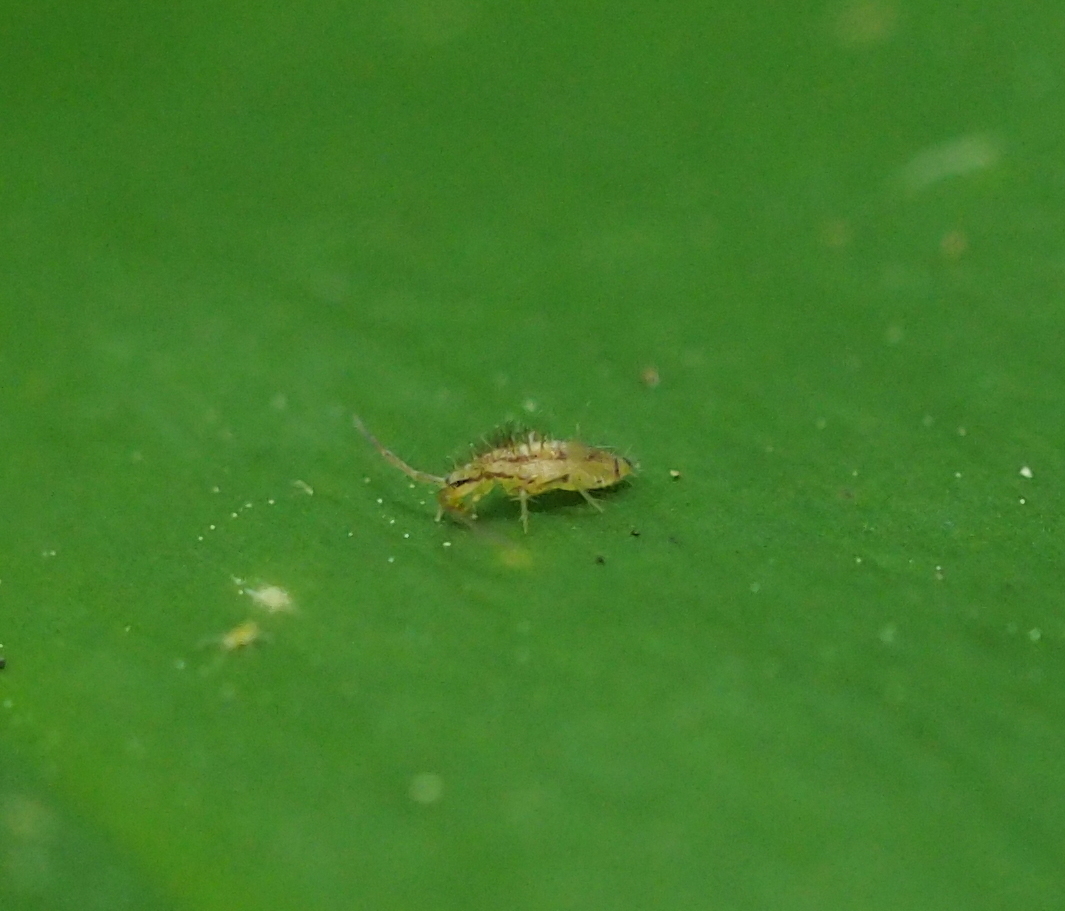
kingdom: Animalia
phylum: Arthropoda
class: Collembola
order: Entomobryomorpha
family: Entomobryidae
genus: Entomobrya
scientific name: Entomobrya muscorum
